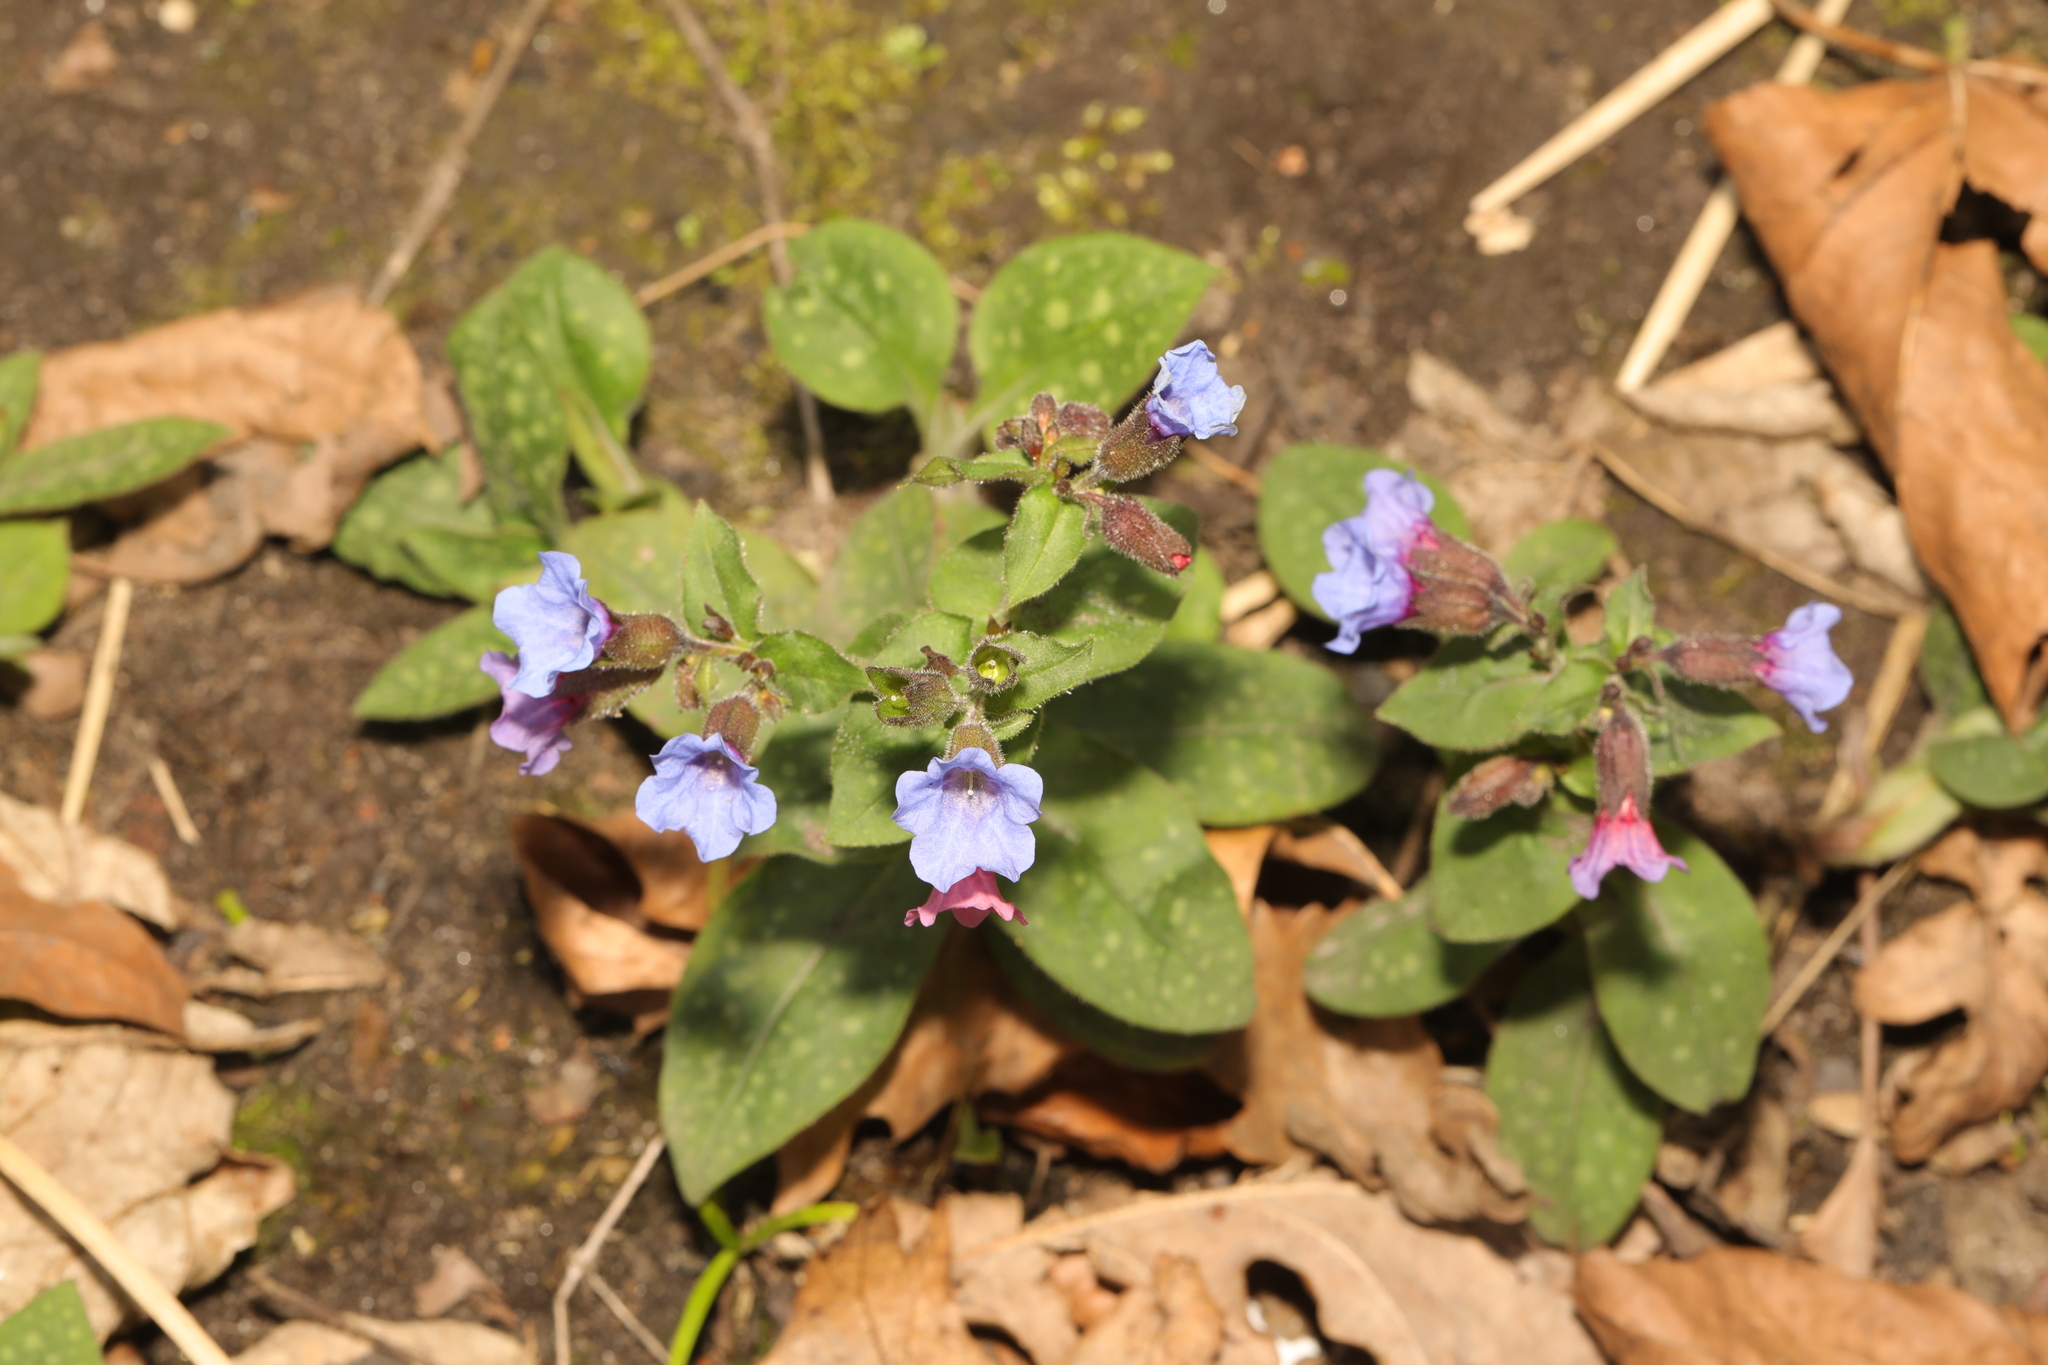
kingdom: Plantae
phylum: Tracheophyta
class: Magnoliopsida
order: Boraginales
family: Boraginaceae
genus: Pulmonaria
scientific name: Pulmonaria officinalis
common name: Lungwort
